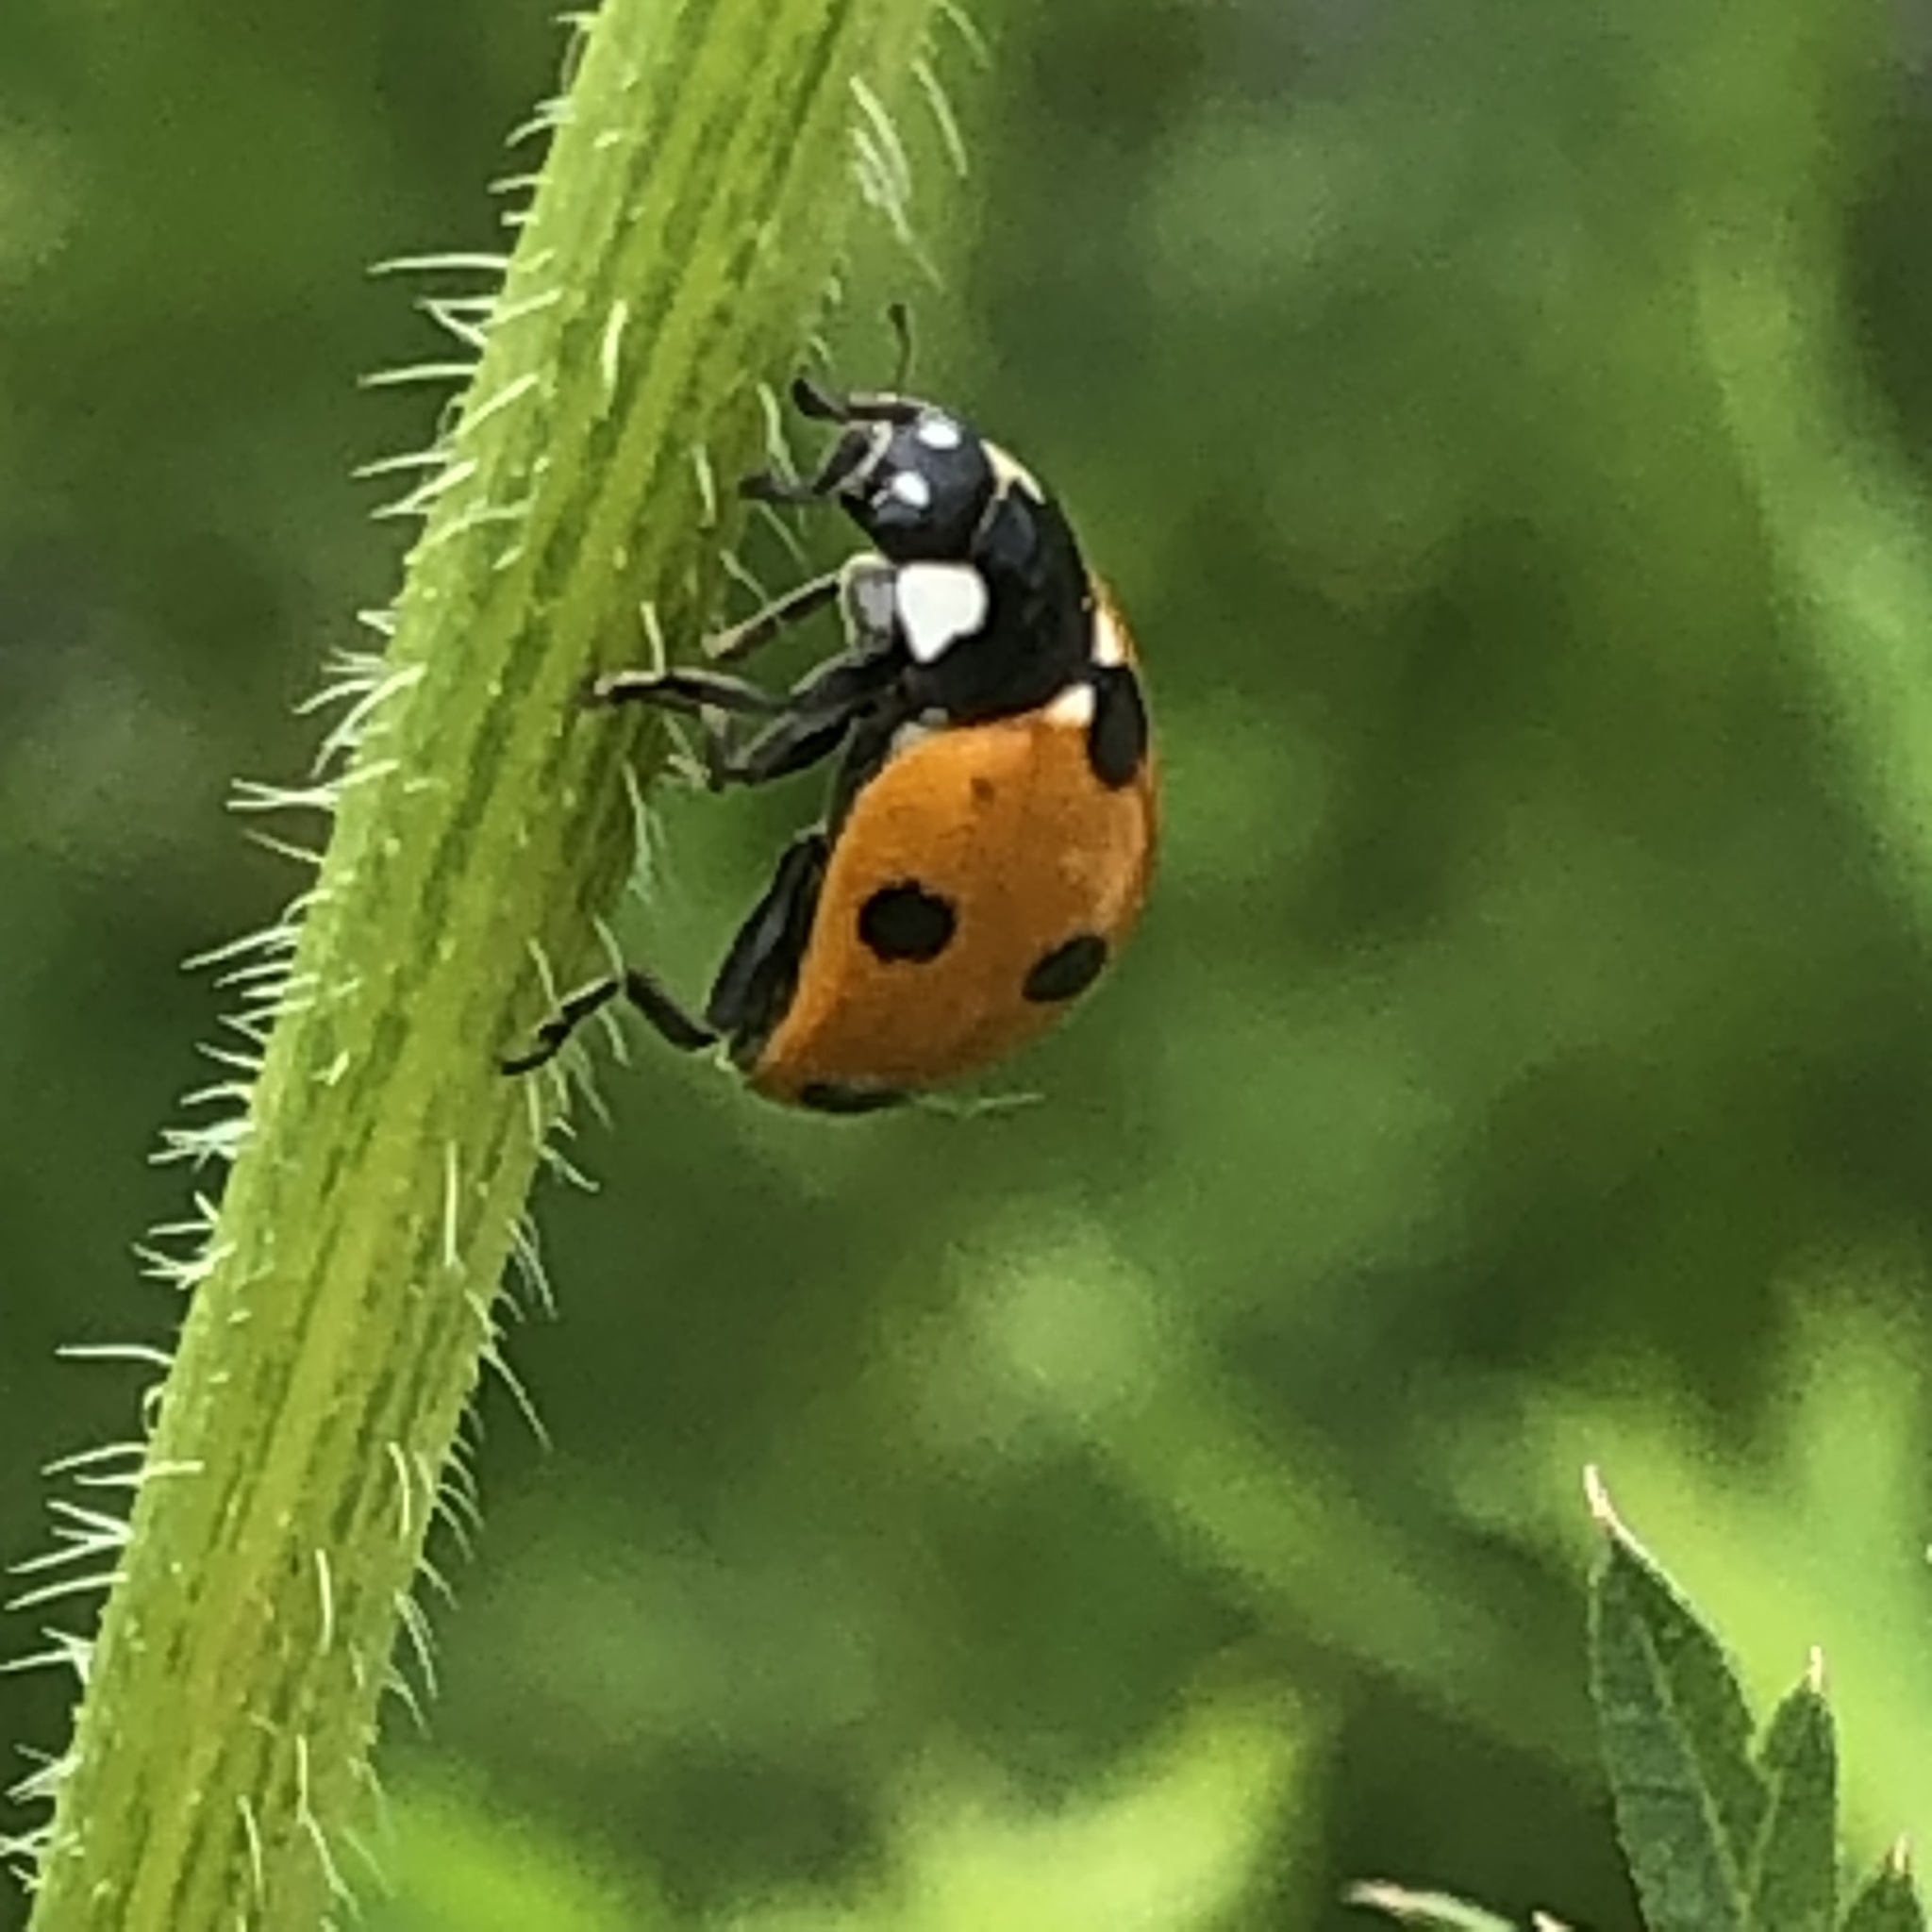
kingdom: Animalia
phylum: Arthropoda
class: Insecta
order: Coleoptera
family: Coccinellidae
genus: Coccinella
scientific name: Coccinella septempunctata
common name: Sevenspotted lady beetle
